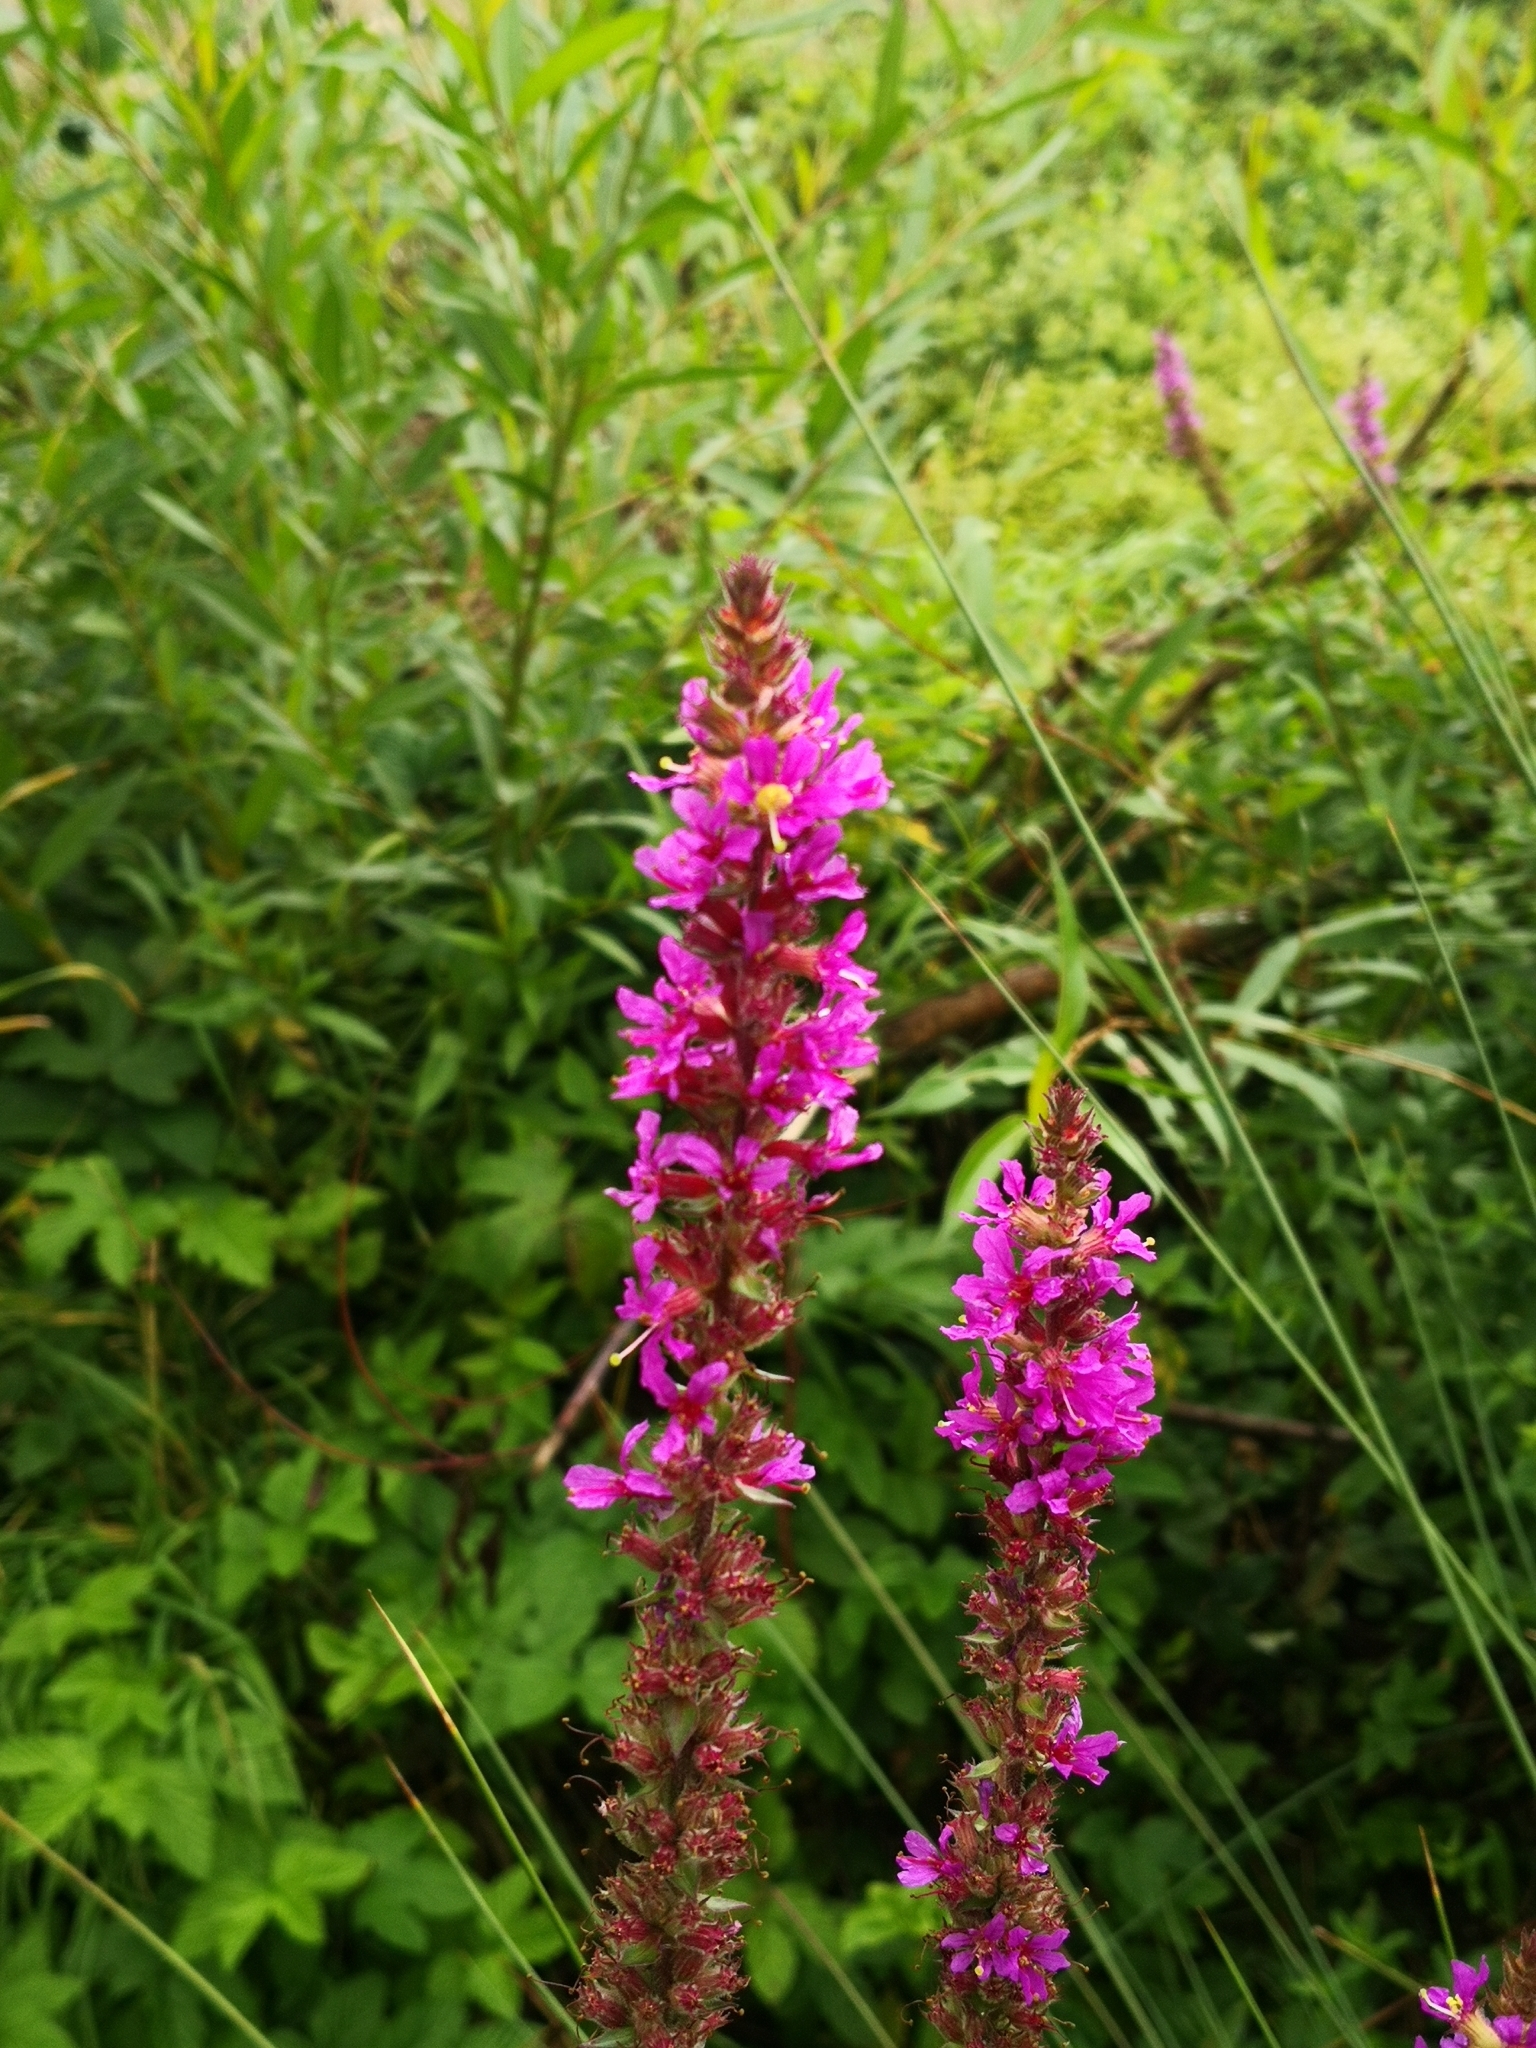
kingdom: Plantae
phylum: Tracheophyta
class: Magnoliopsida
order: Myrtales
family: Lythraceae
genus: Lythrum
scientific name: Lythrum salicaria
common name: Purple loosestrife
